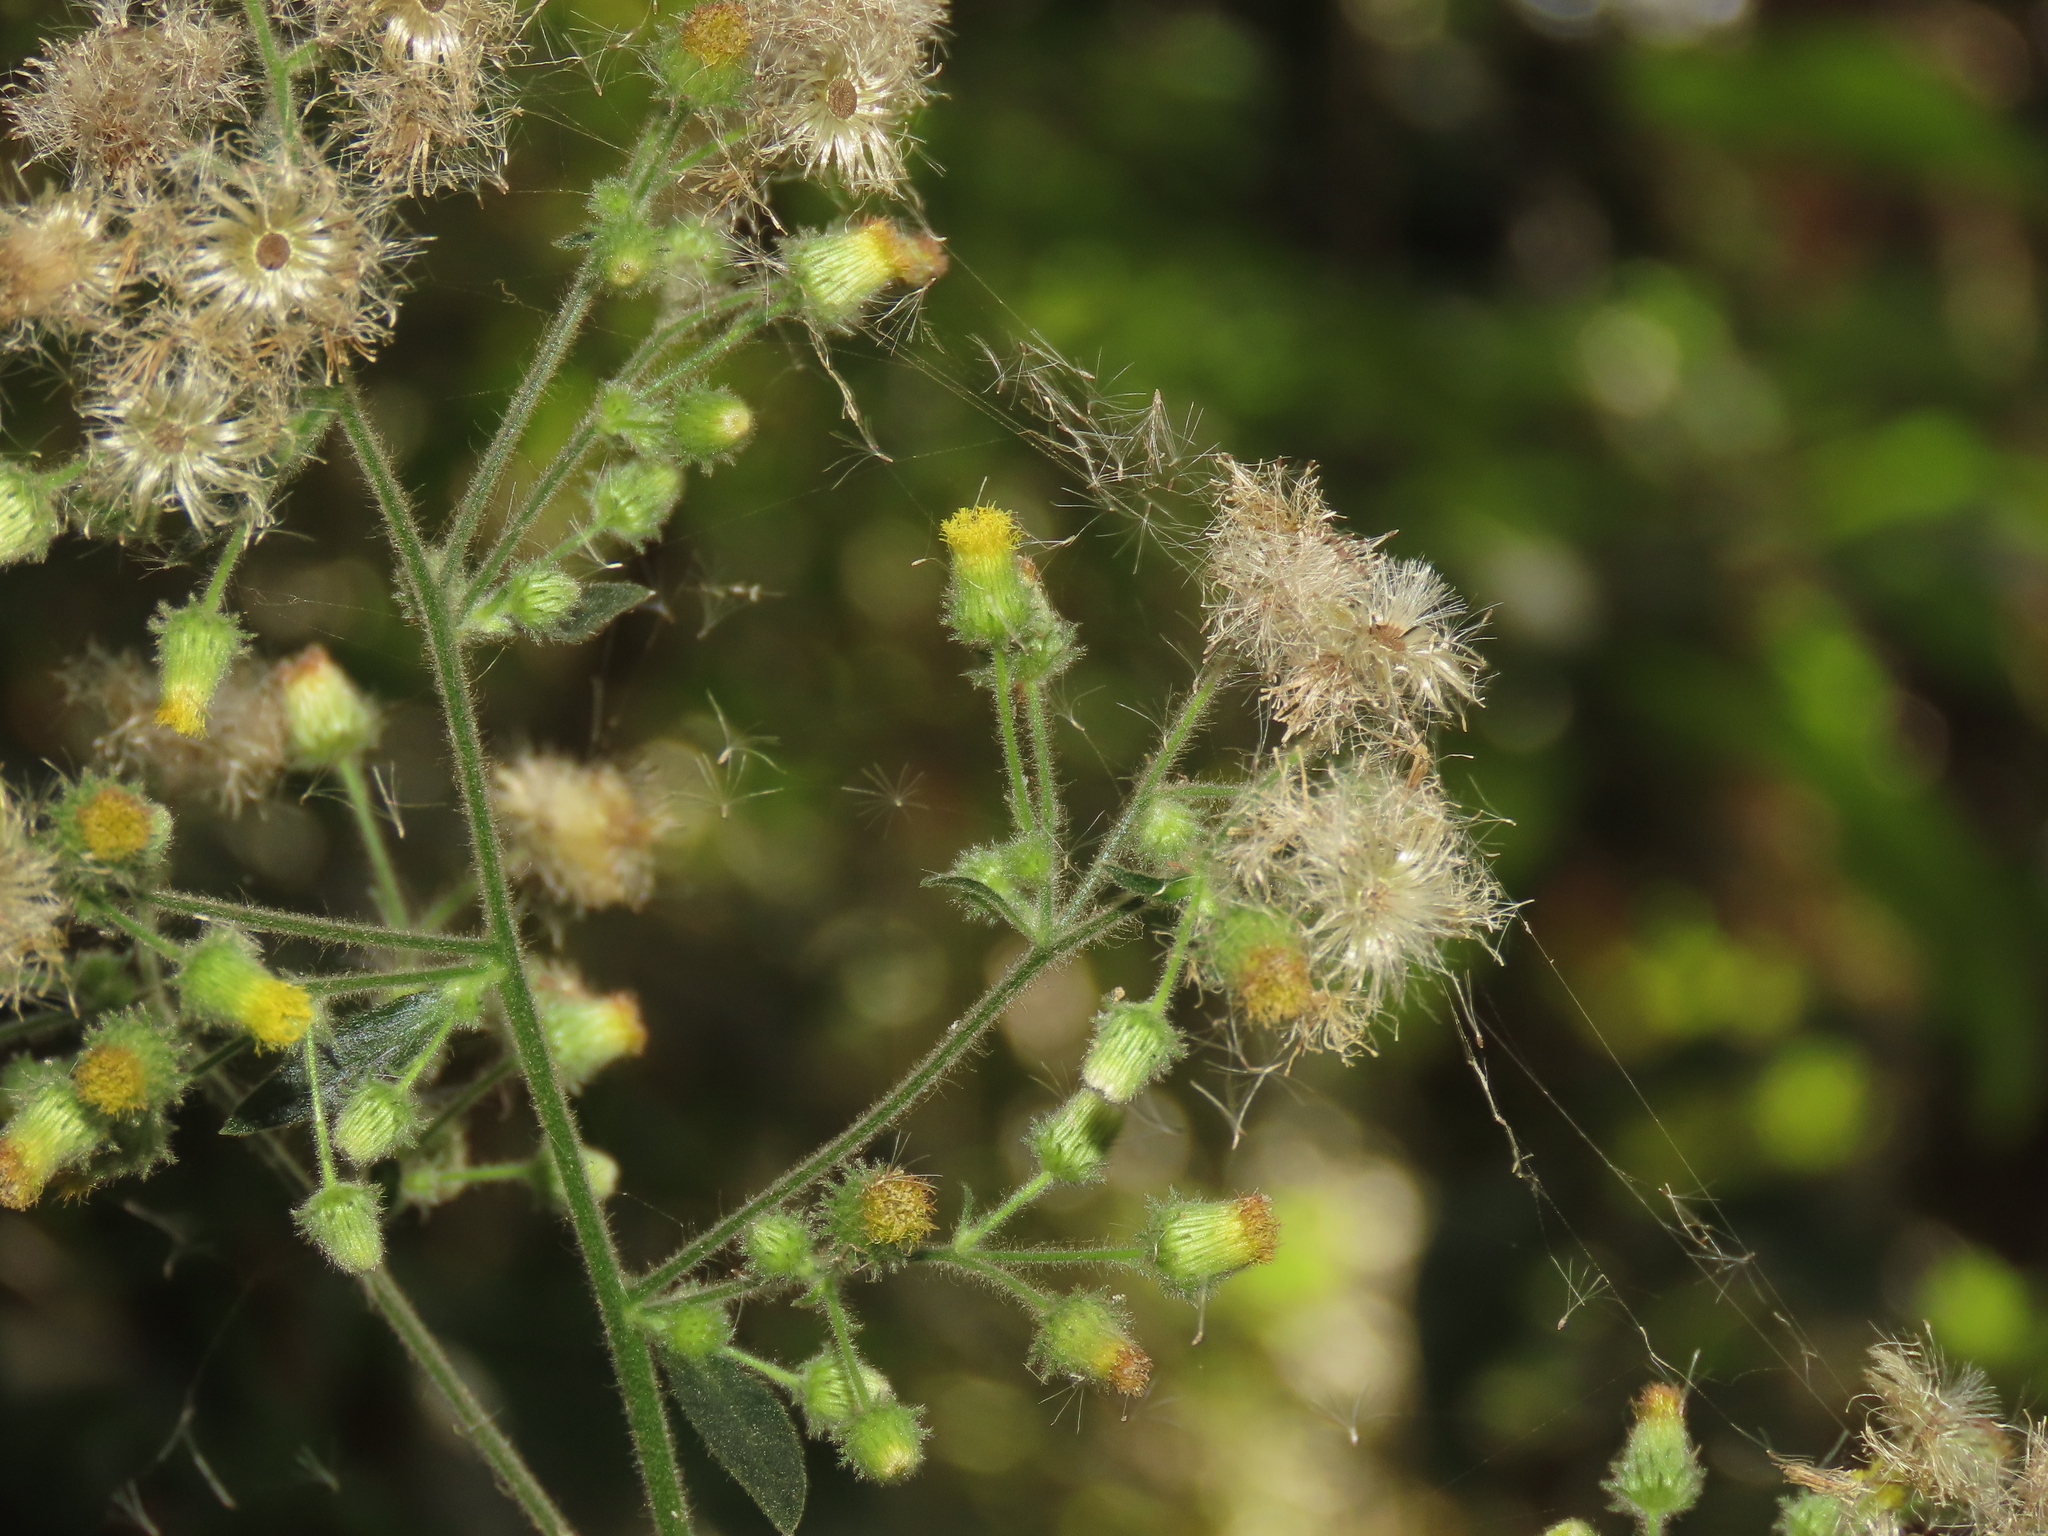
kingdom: Plantae
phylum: Tracheophyta
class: Magnoliopsida
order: Asterales
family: Asteraceae
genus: Blumea
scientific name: Blumea sinuata
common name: Cutleaf false oxtongue
